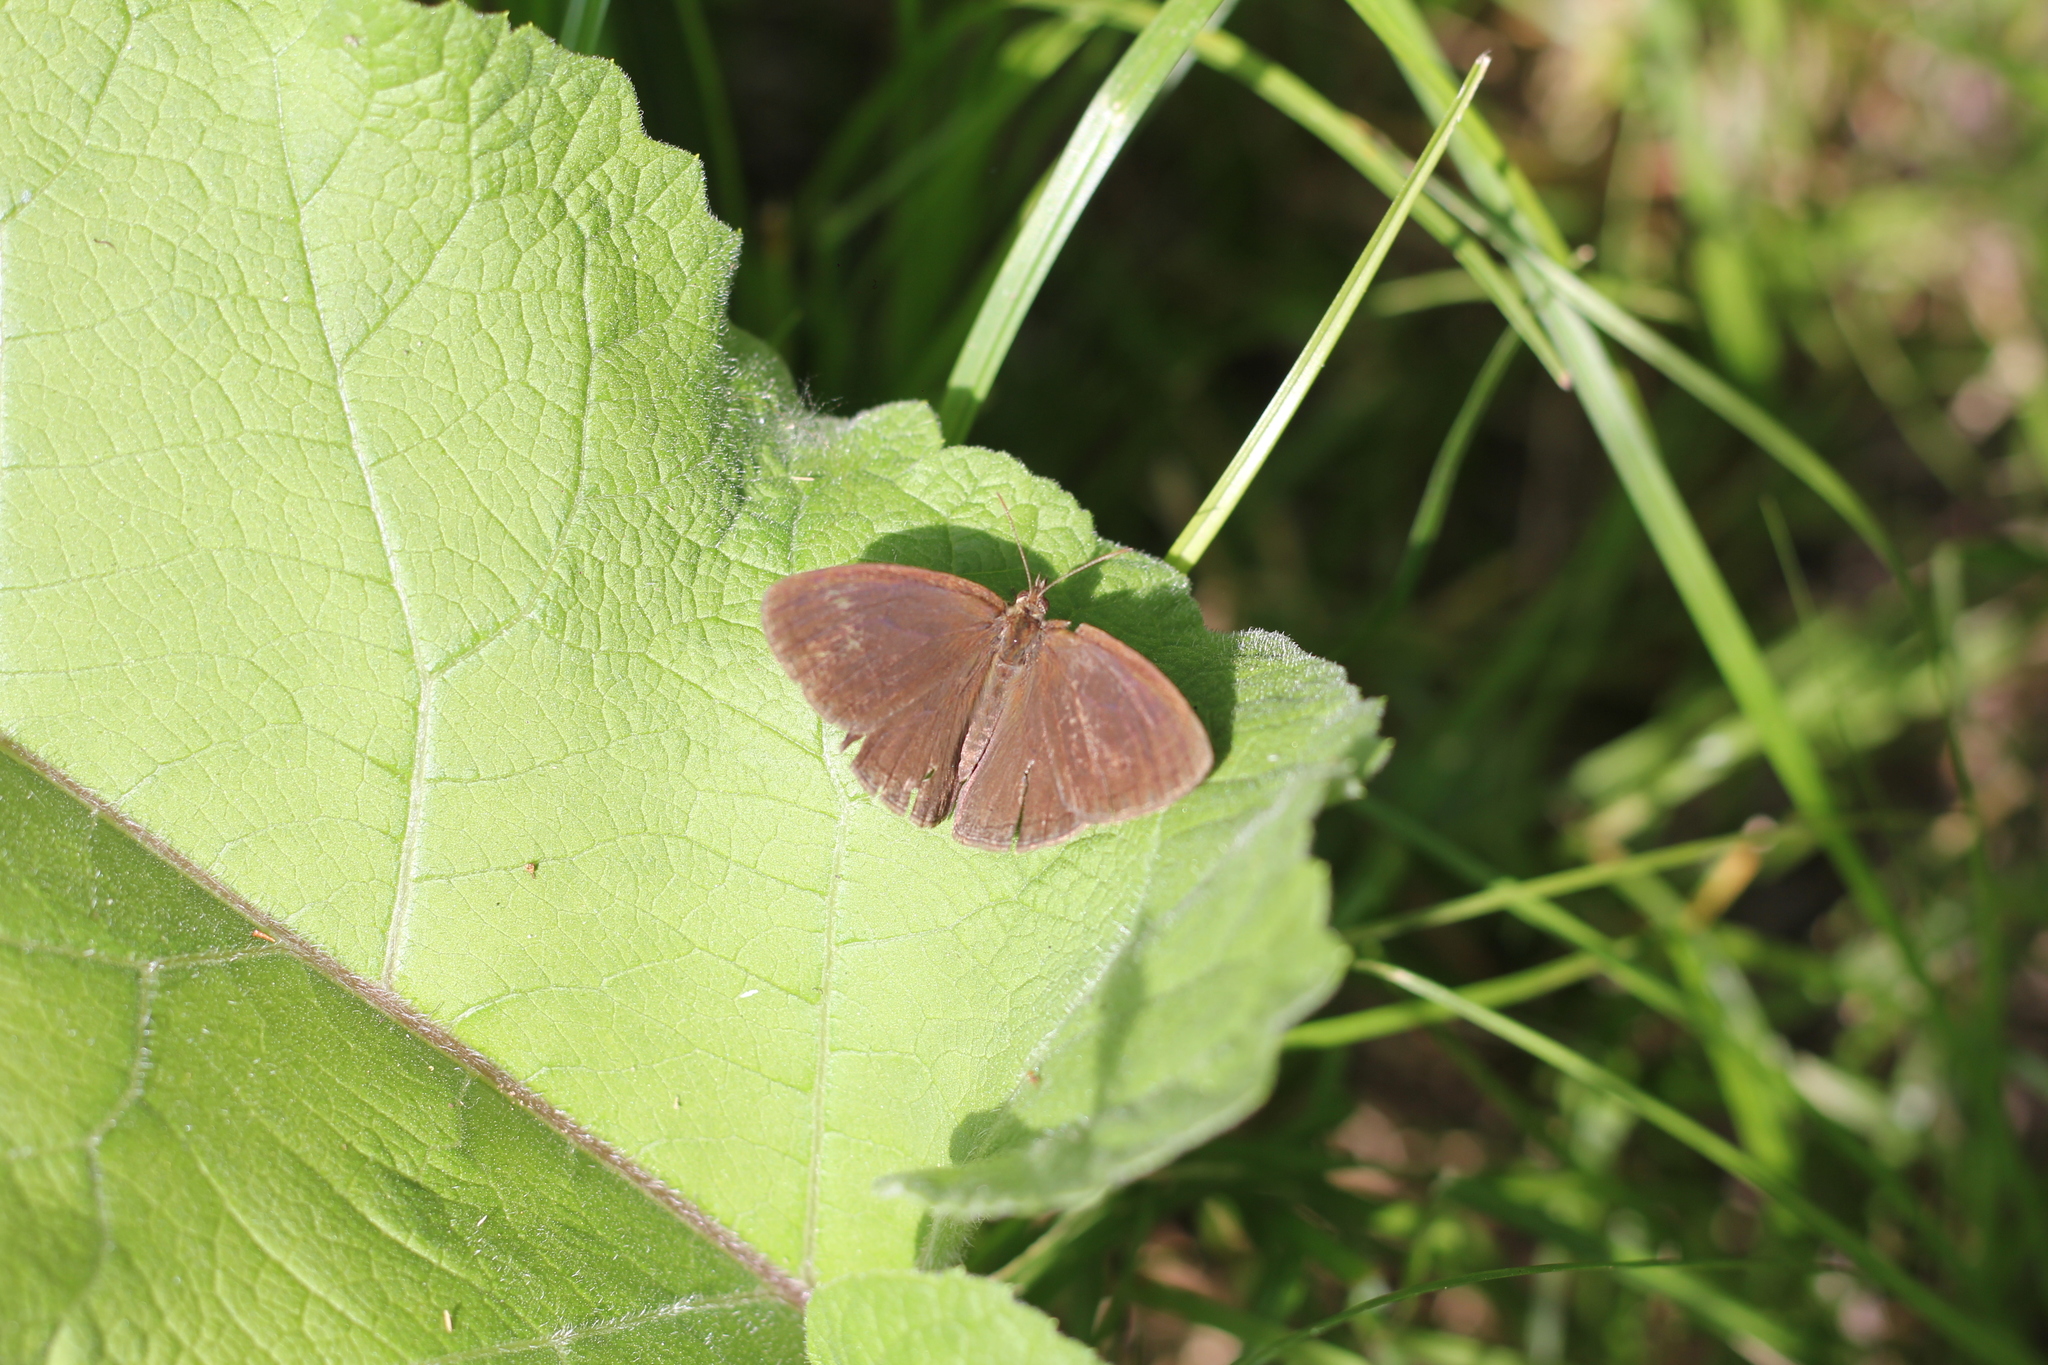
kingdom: Animalia
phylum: Arthropoda
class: Insecta
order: Lepidoptera
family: Nymphalidae
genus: Euptychia
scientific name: Euptychia
